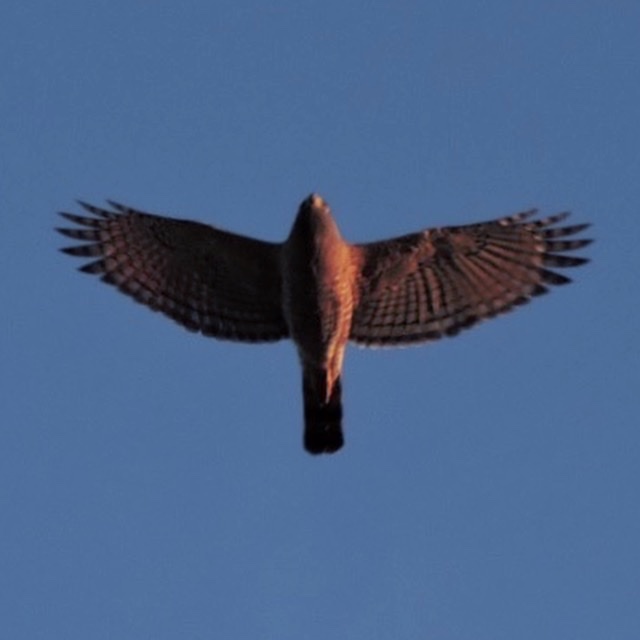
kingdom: Animalia
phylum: Chordata
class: Aves
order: Accipitriformes
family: Accipitridae
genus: Rupornis
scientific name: Rupornis magnirostris
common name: Roadside hawk
